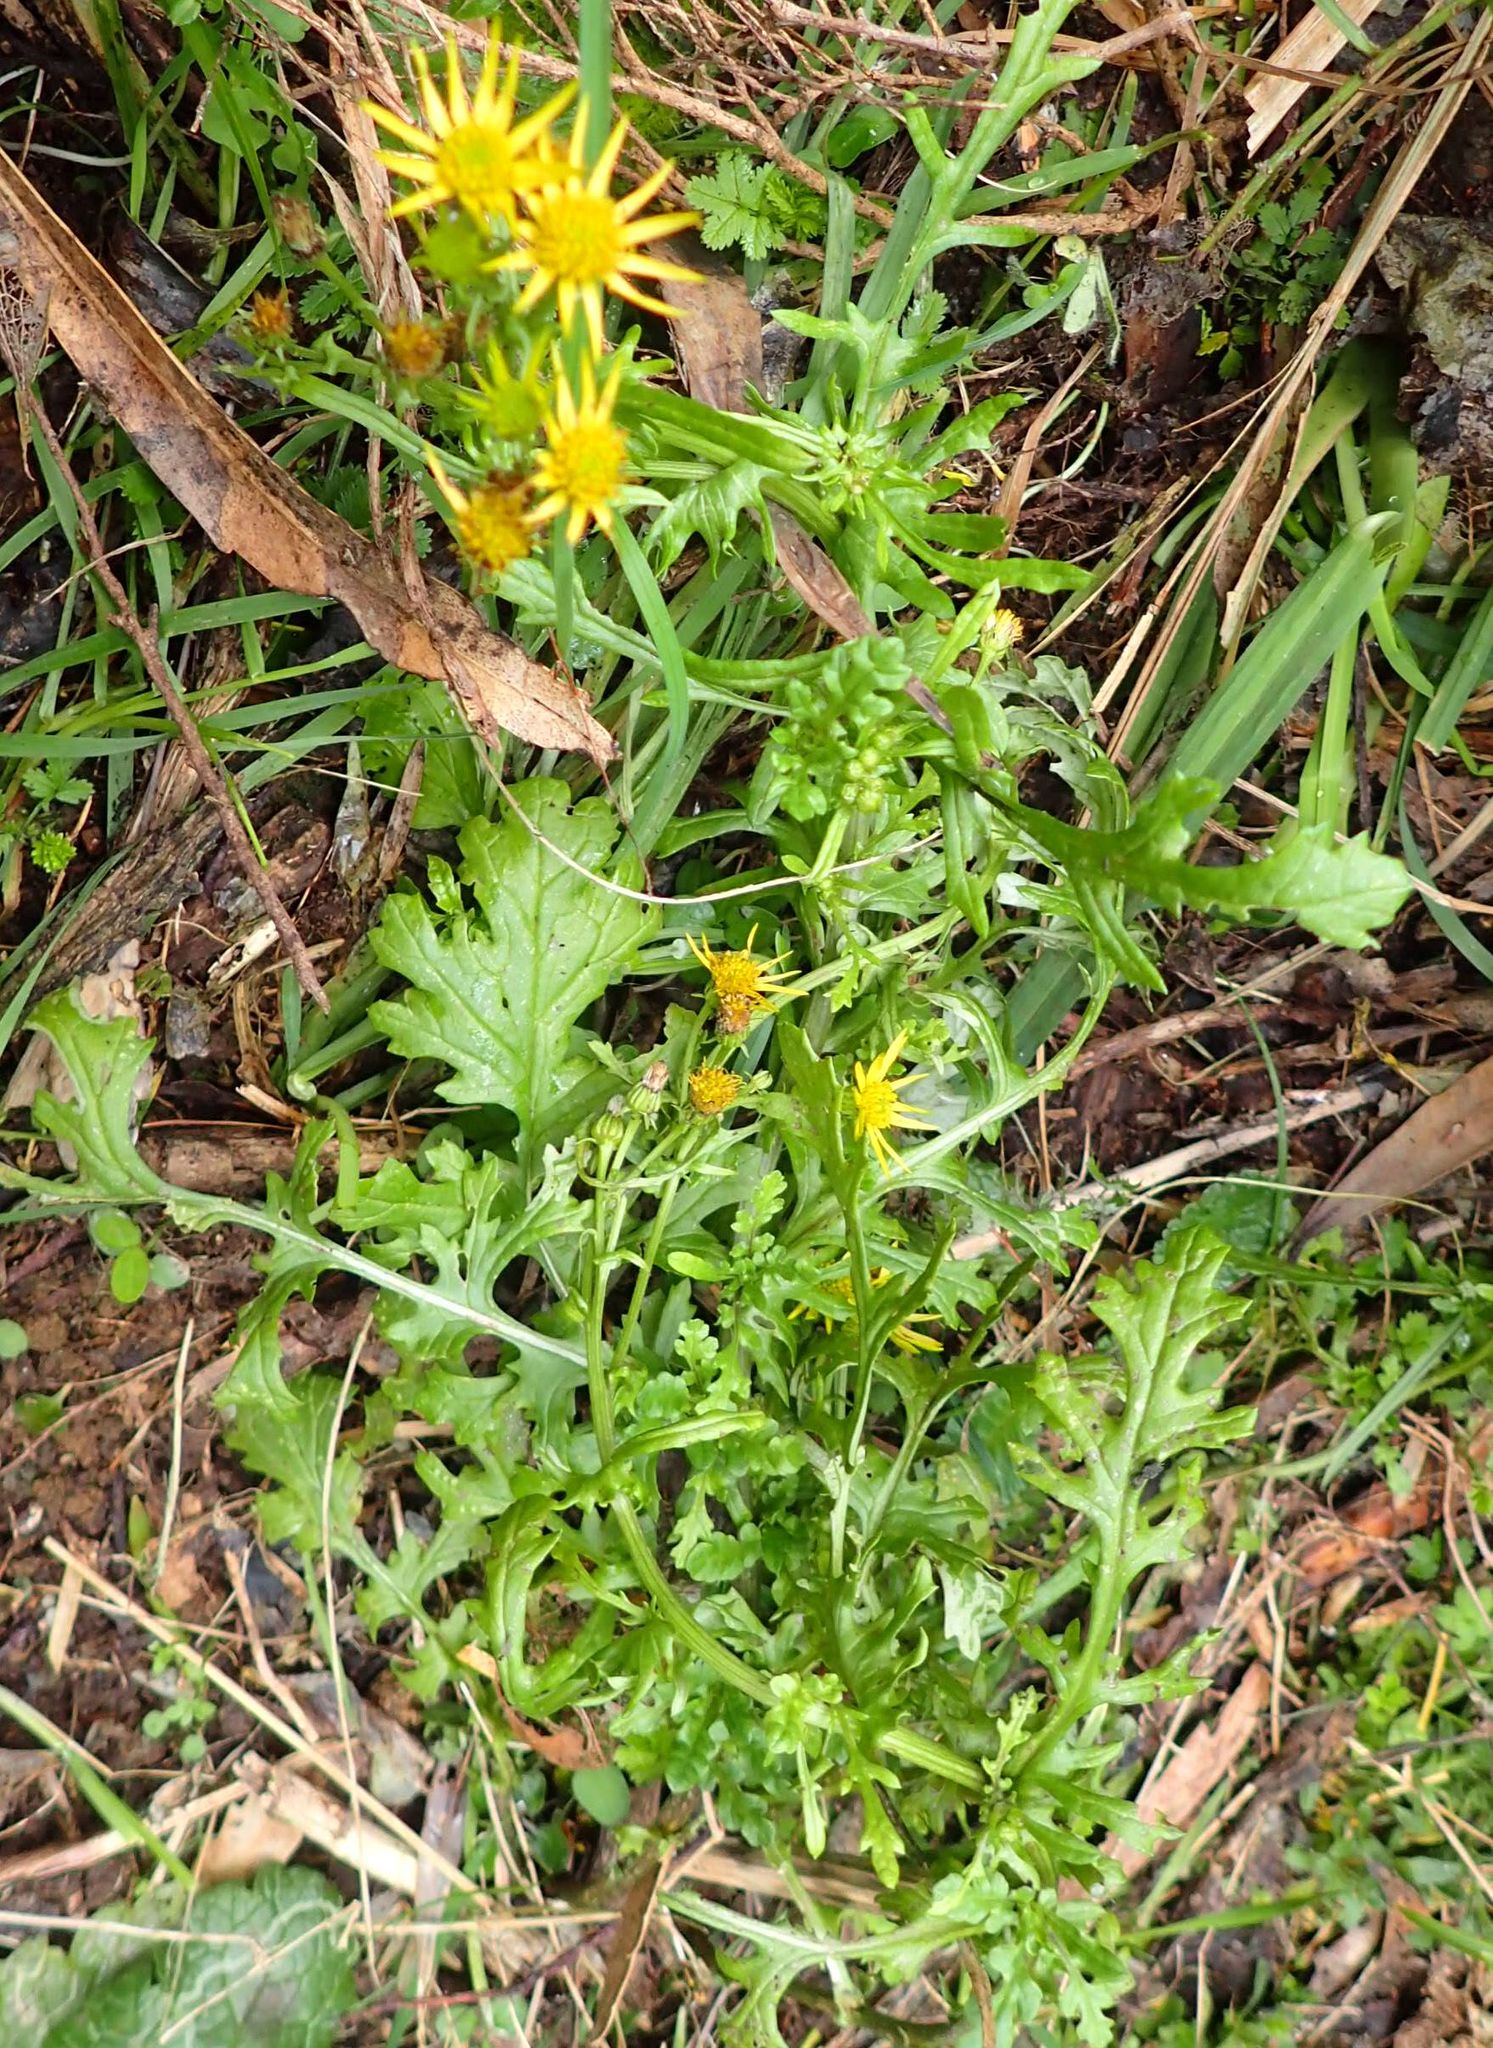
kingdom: Plantae
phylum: Tracheophyta
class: Magnoliopsida
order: Asterales
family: Asteraceae
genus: Jacobaea
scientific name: Jacobaea vulgaris
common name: Stinking willie
